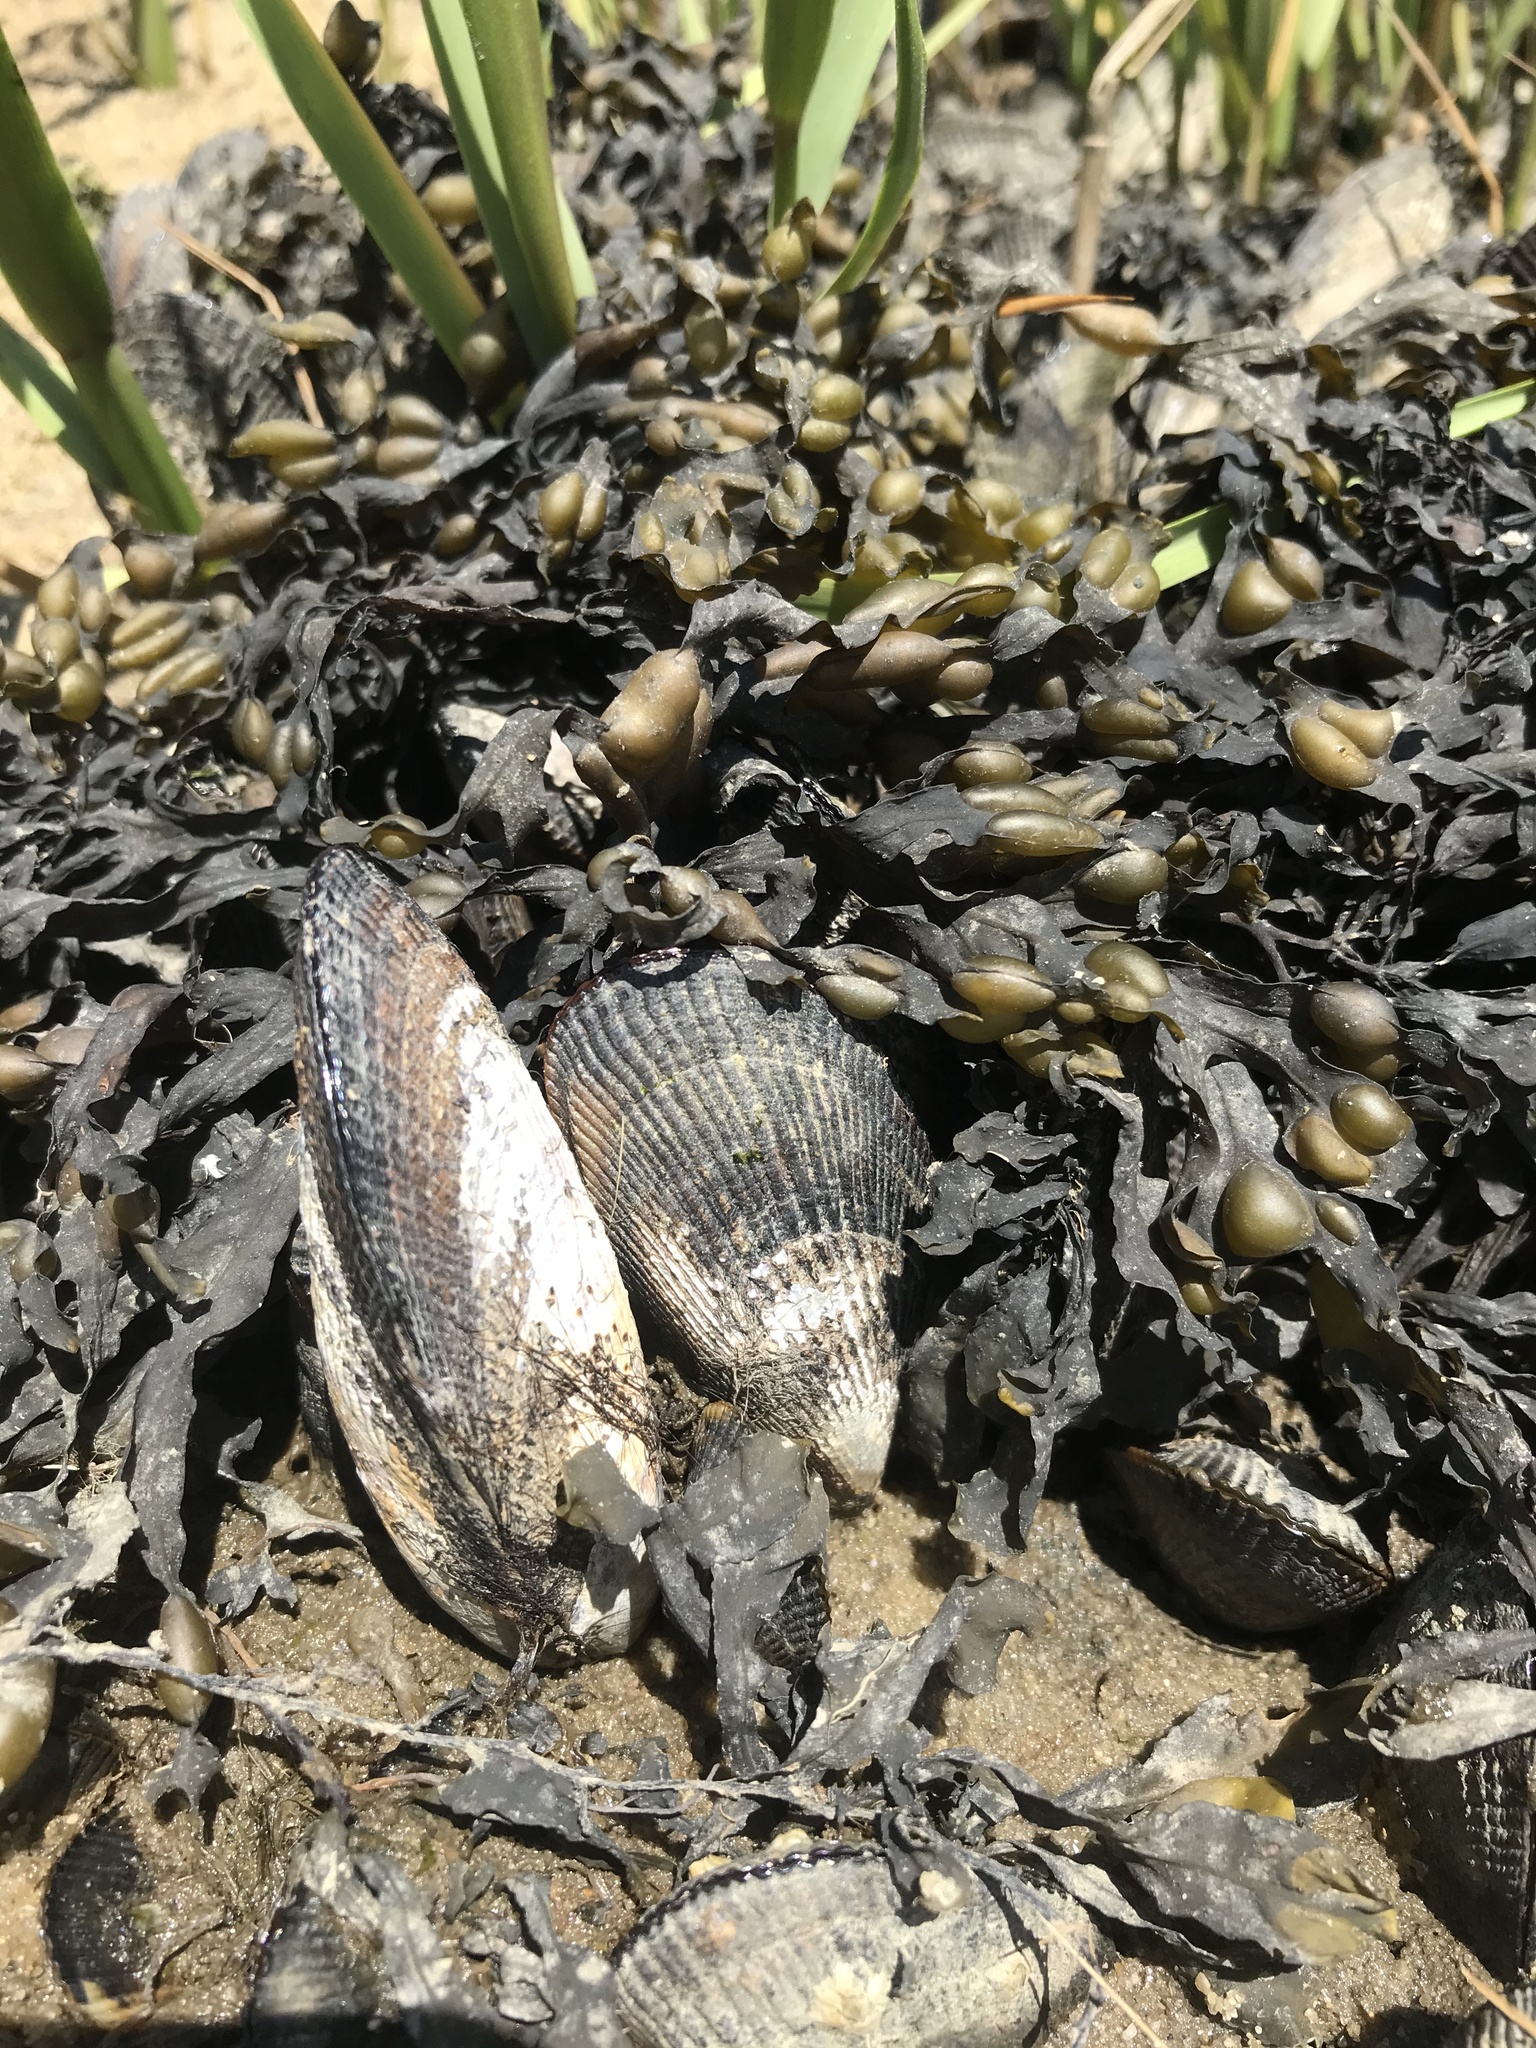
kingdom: Animalia
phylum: Mollusca
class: Bivalvia
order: Mytilida
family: Mytilidae
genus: Geukensia
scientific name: Geukensia demissa
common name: Ribbed mussel
